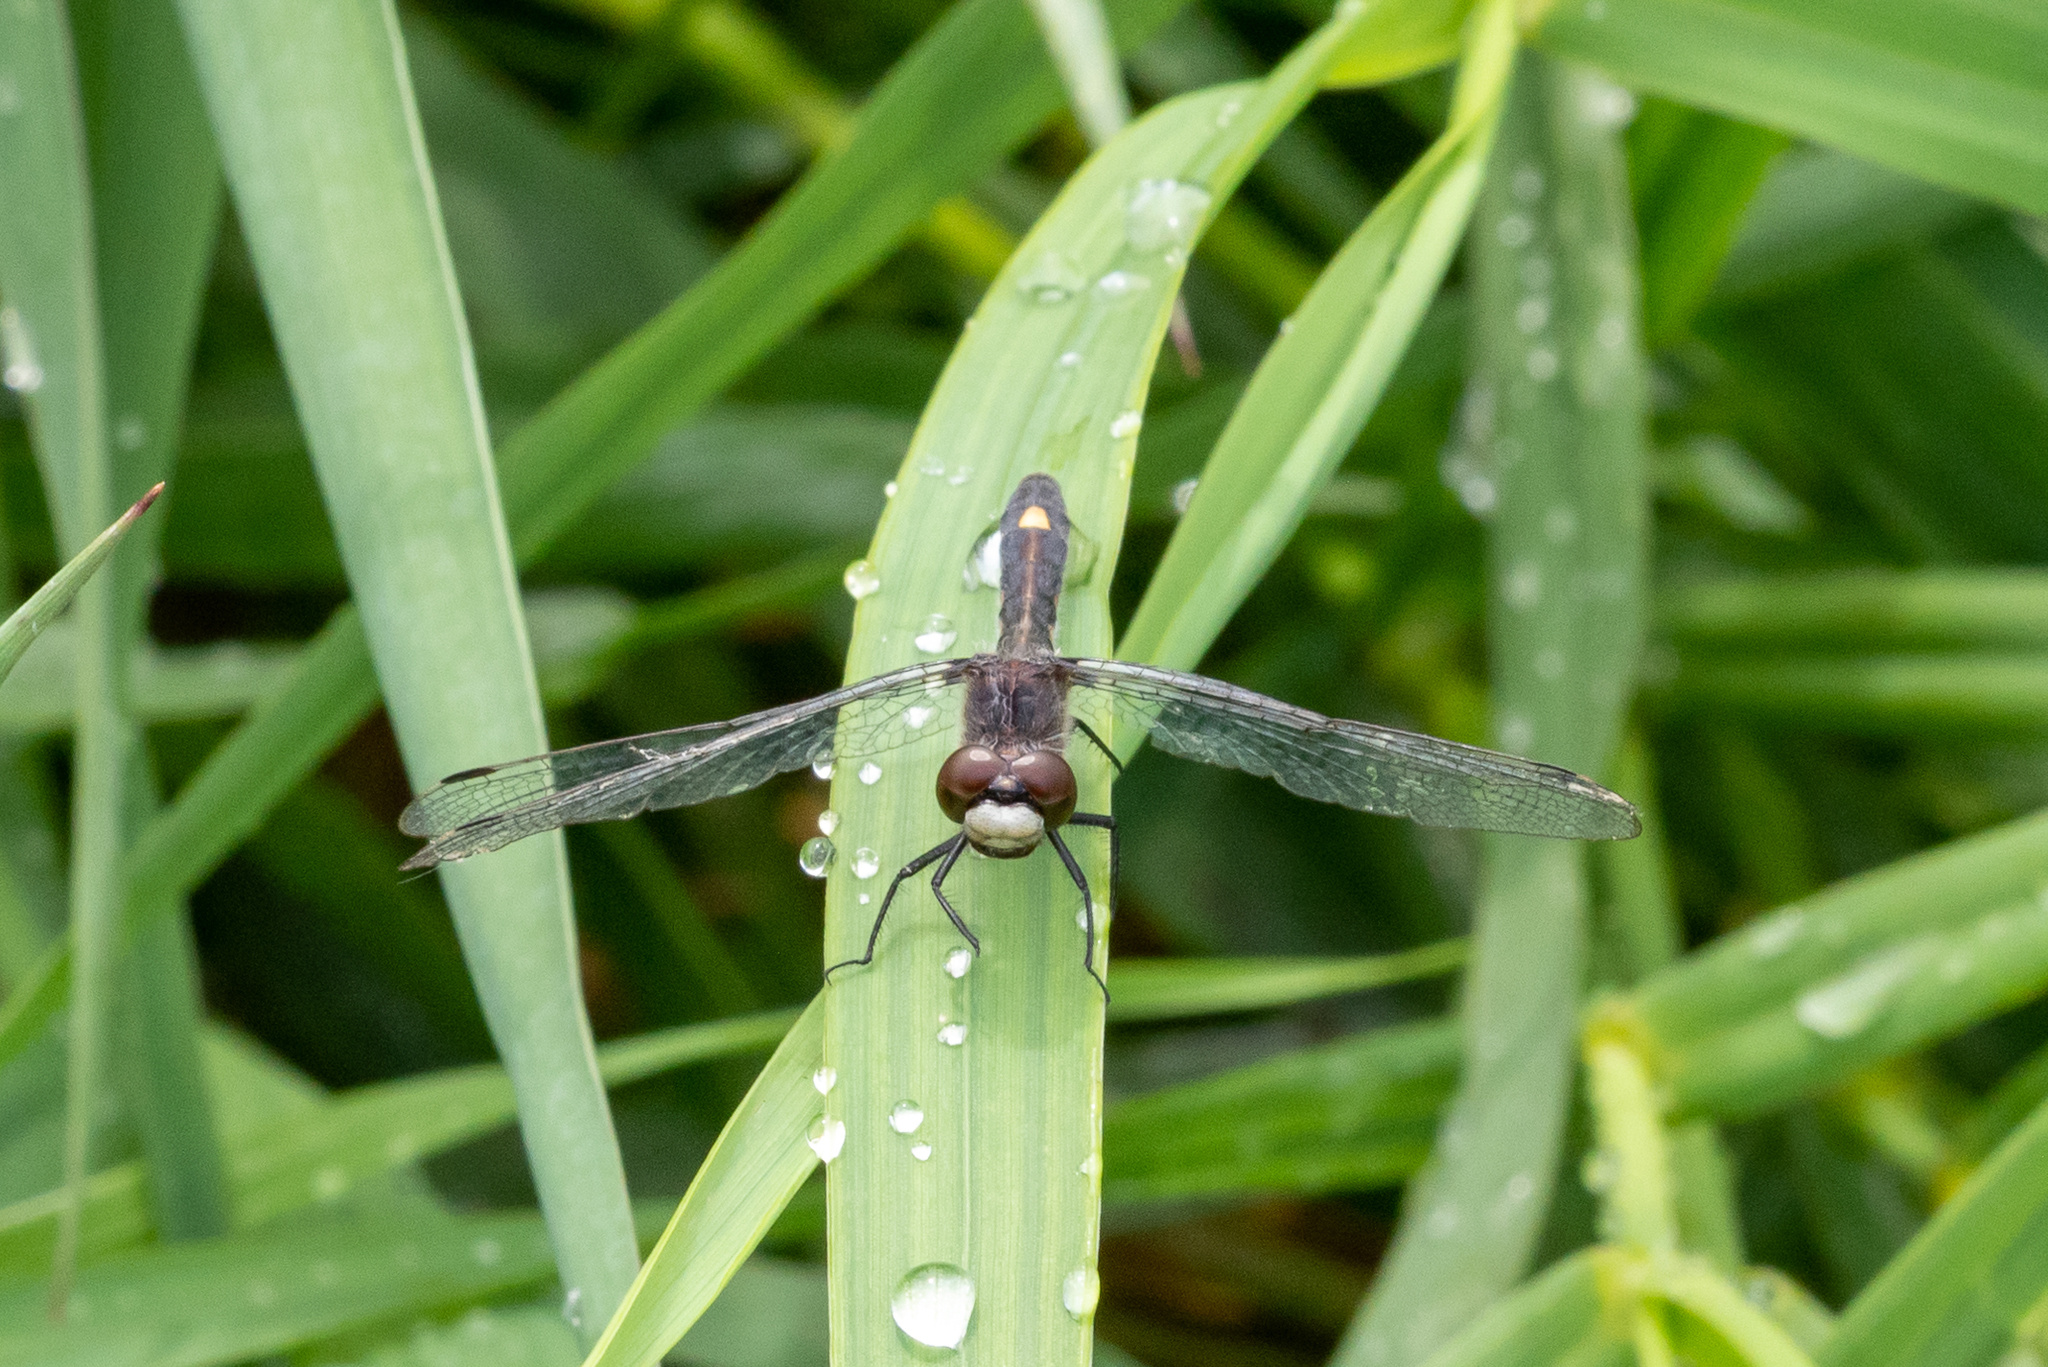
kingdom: Animalia
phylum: Arthropoda
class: Insecta
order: Odonata
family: Libellulidae
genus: Leucorrhinia
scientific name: Leucorrhinia intacta
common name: Dot-tailed whiteface
